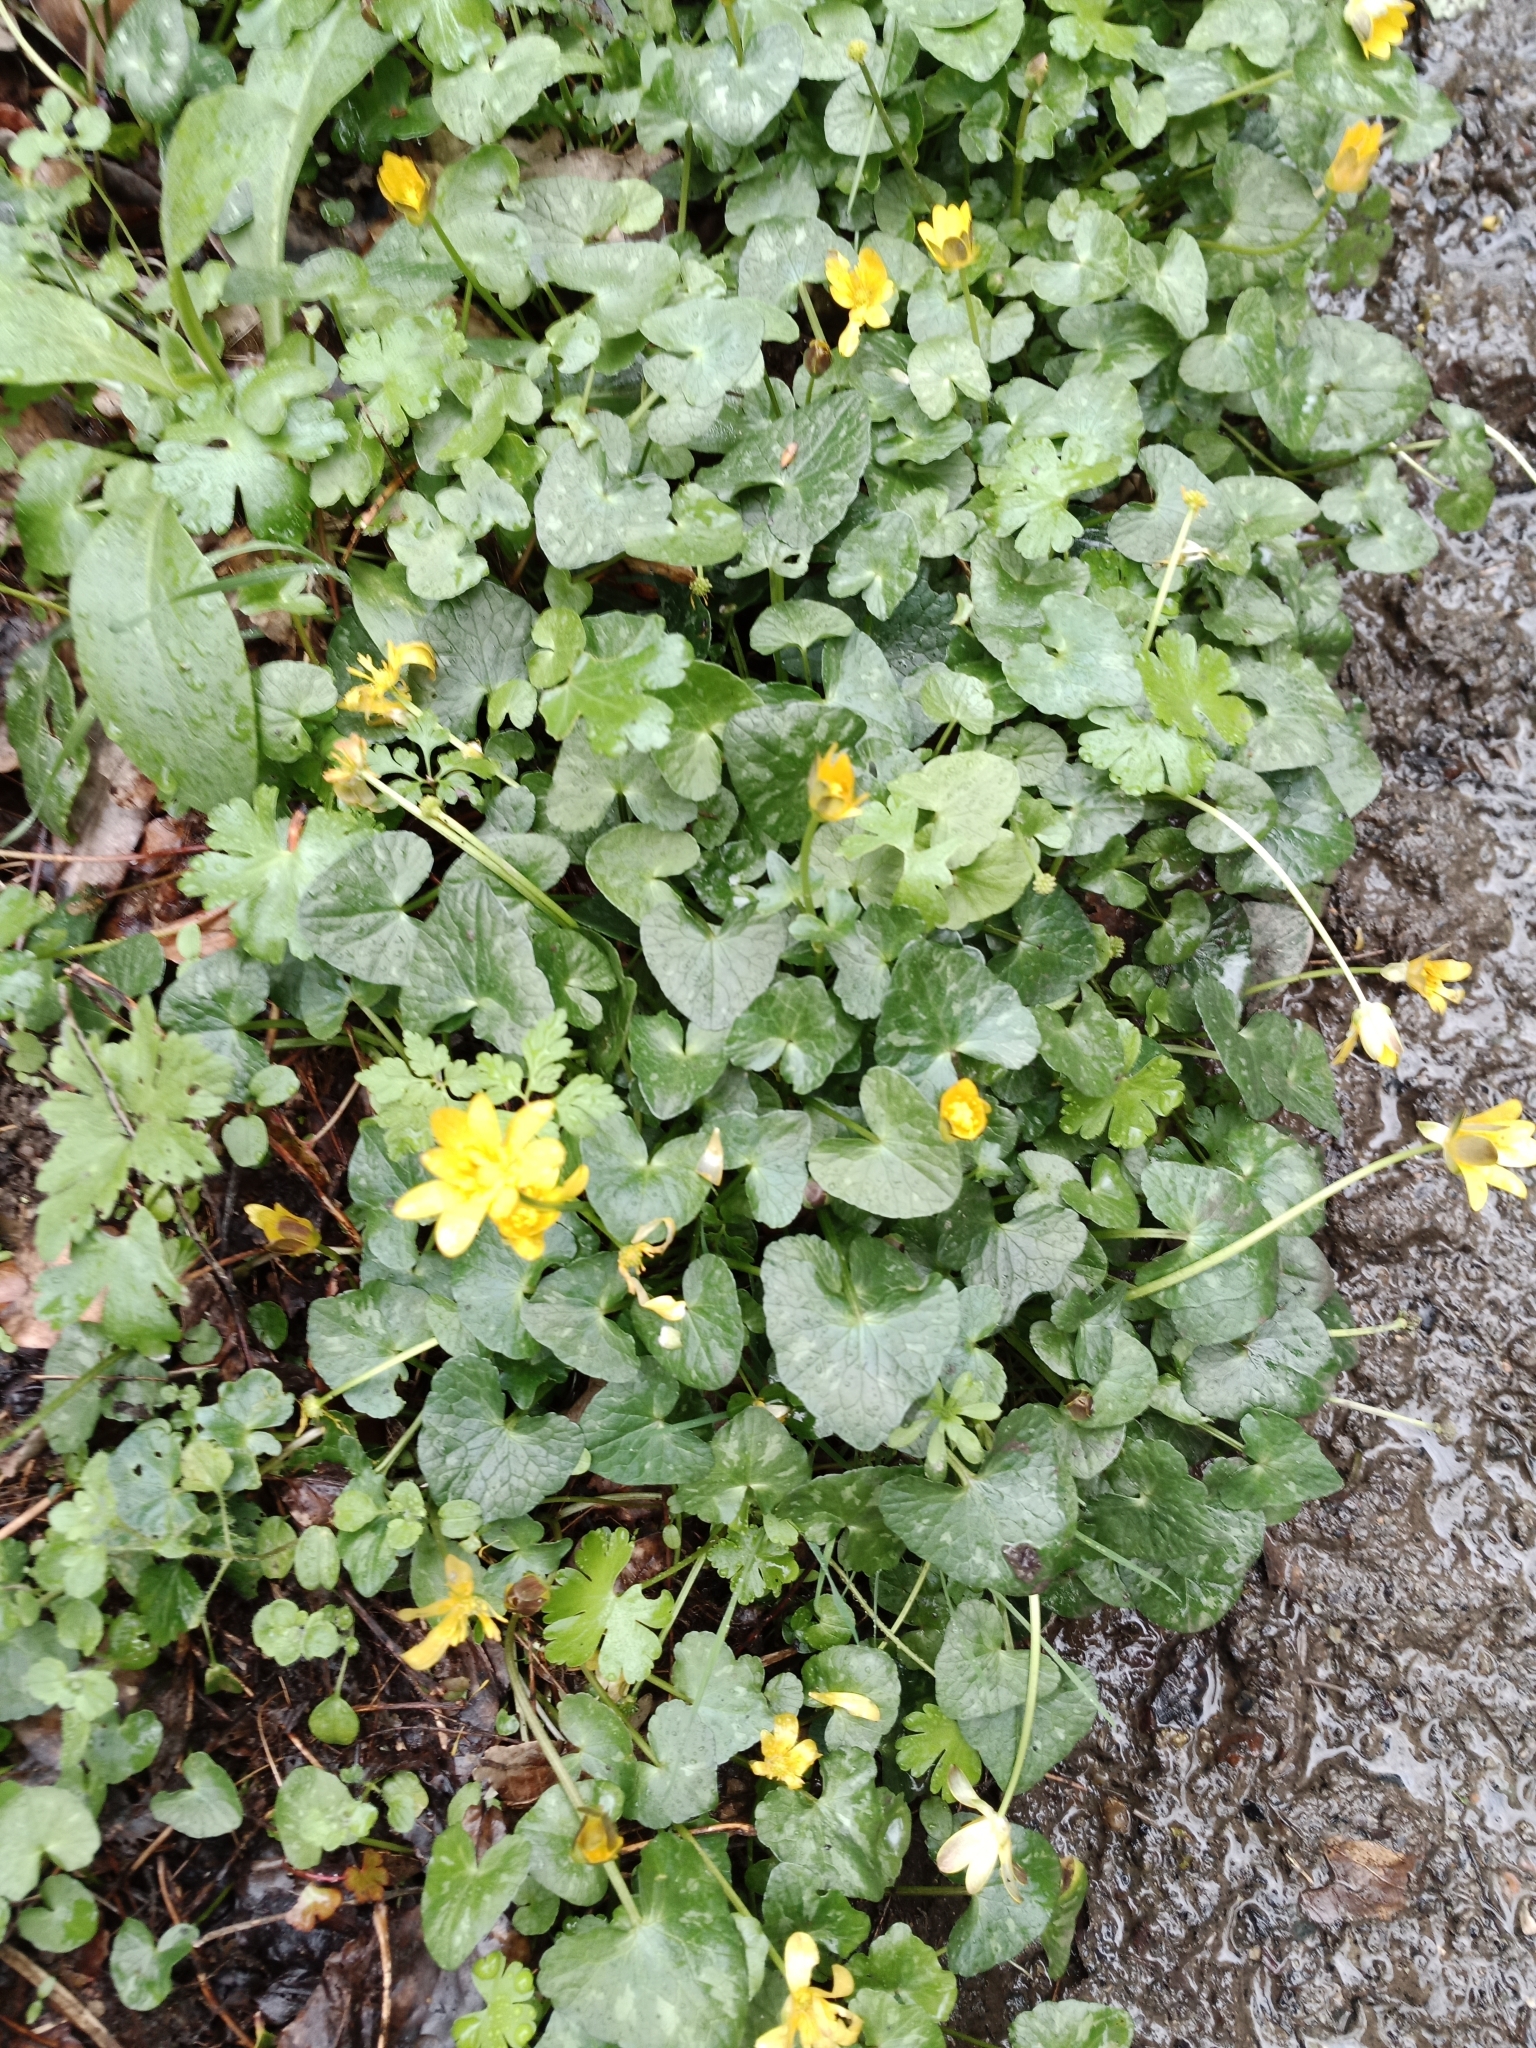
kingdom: Plantae
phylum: Tracheophyta
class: Magnoliopsida
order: Ranunculales
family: Ranunculaceae
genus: Ficaria
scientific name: Ficaria verna
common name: Lesser celandine
